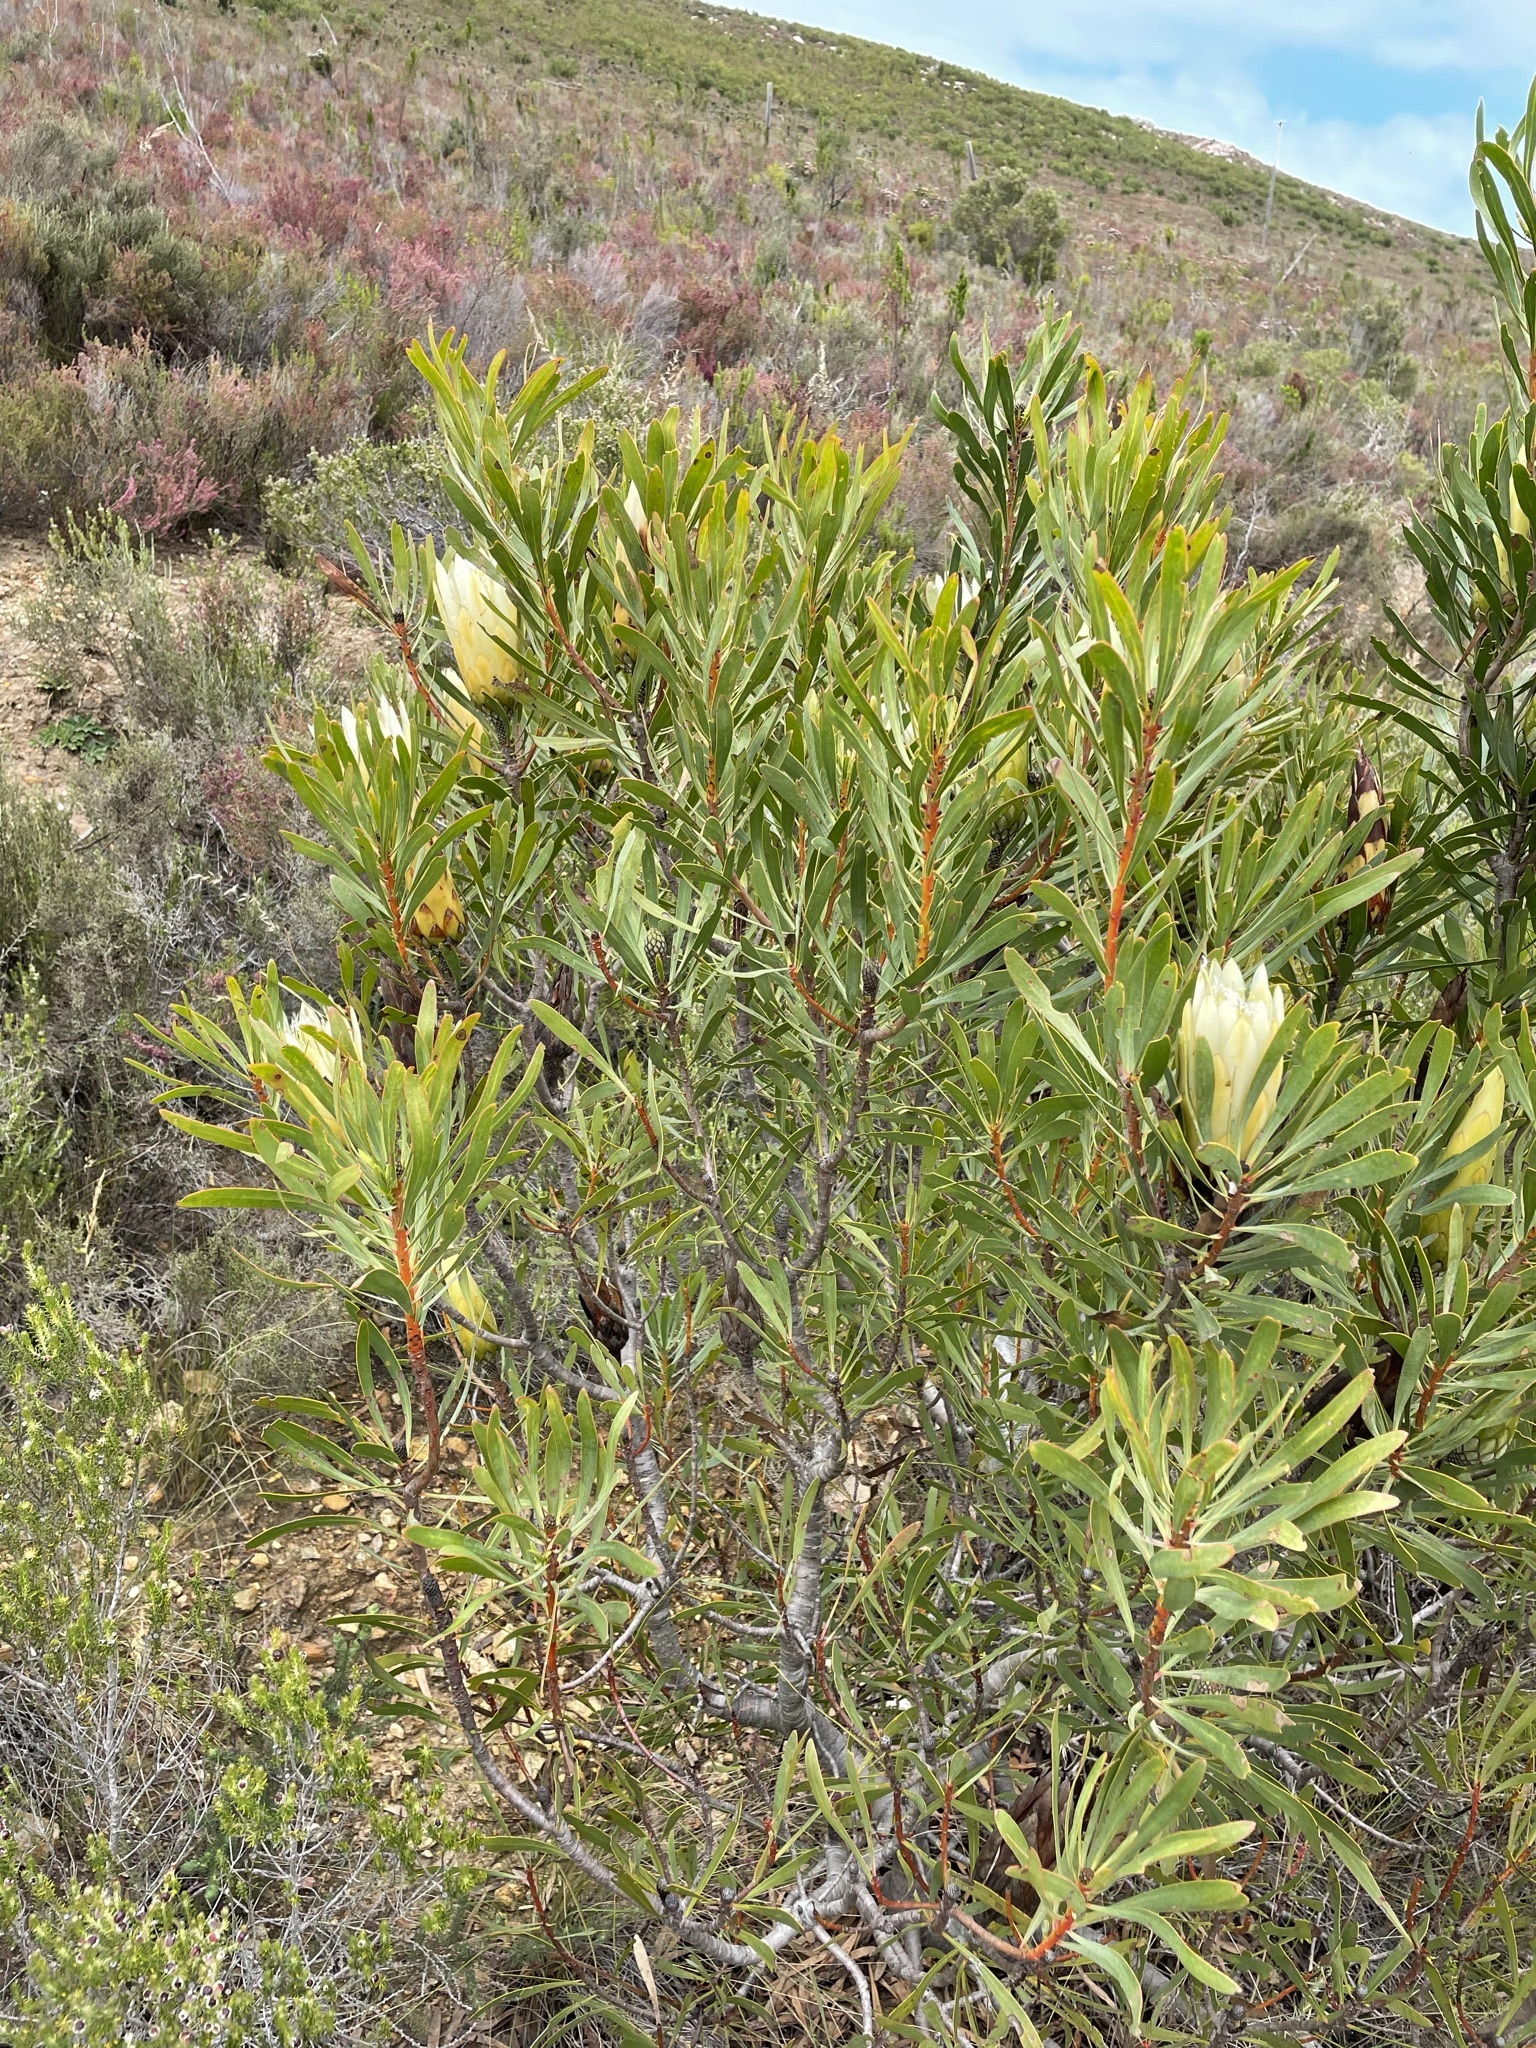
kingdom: Plantae
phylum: Tracheophyta
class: Magnoliopsida
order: Proteales
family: Proteaceae
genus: Protea
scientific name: Protea repens
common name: Sugarbush
